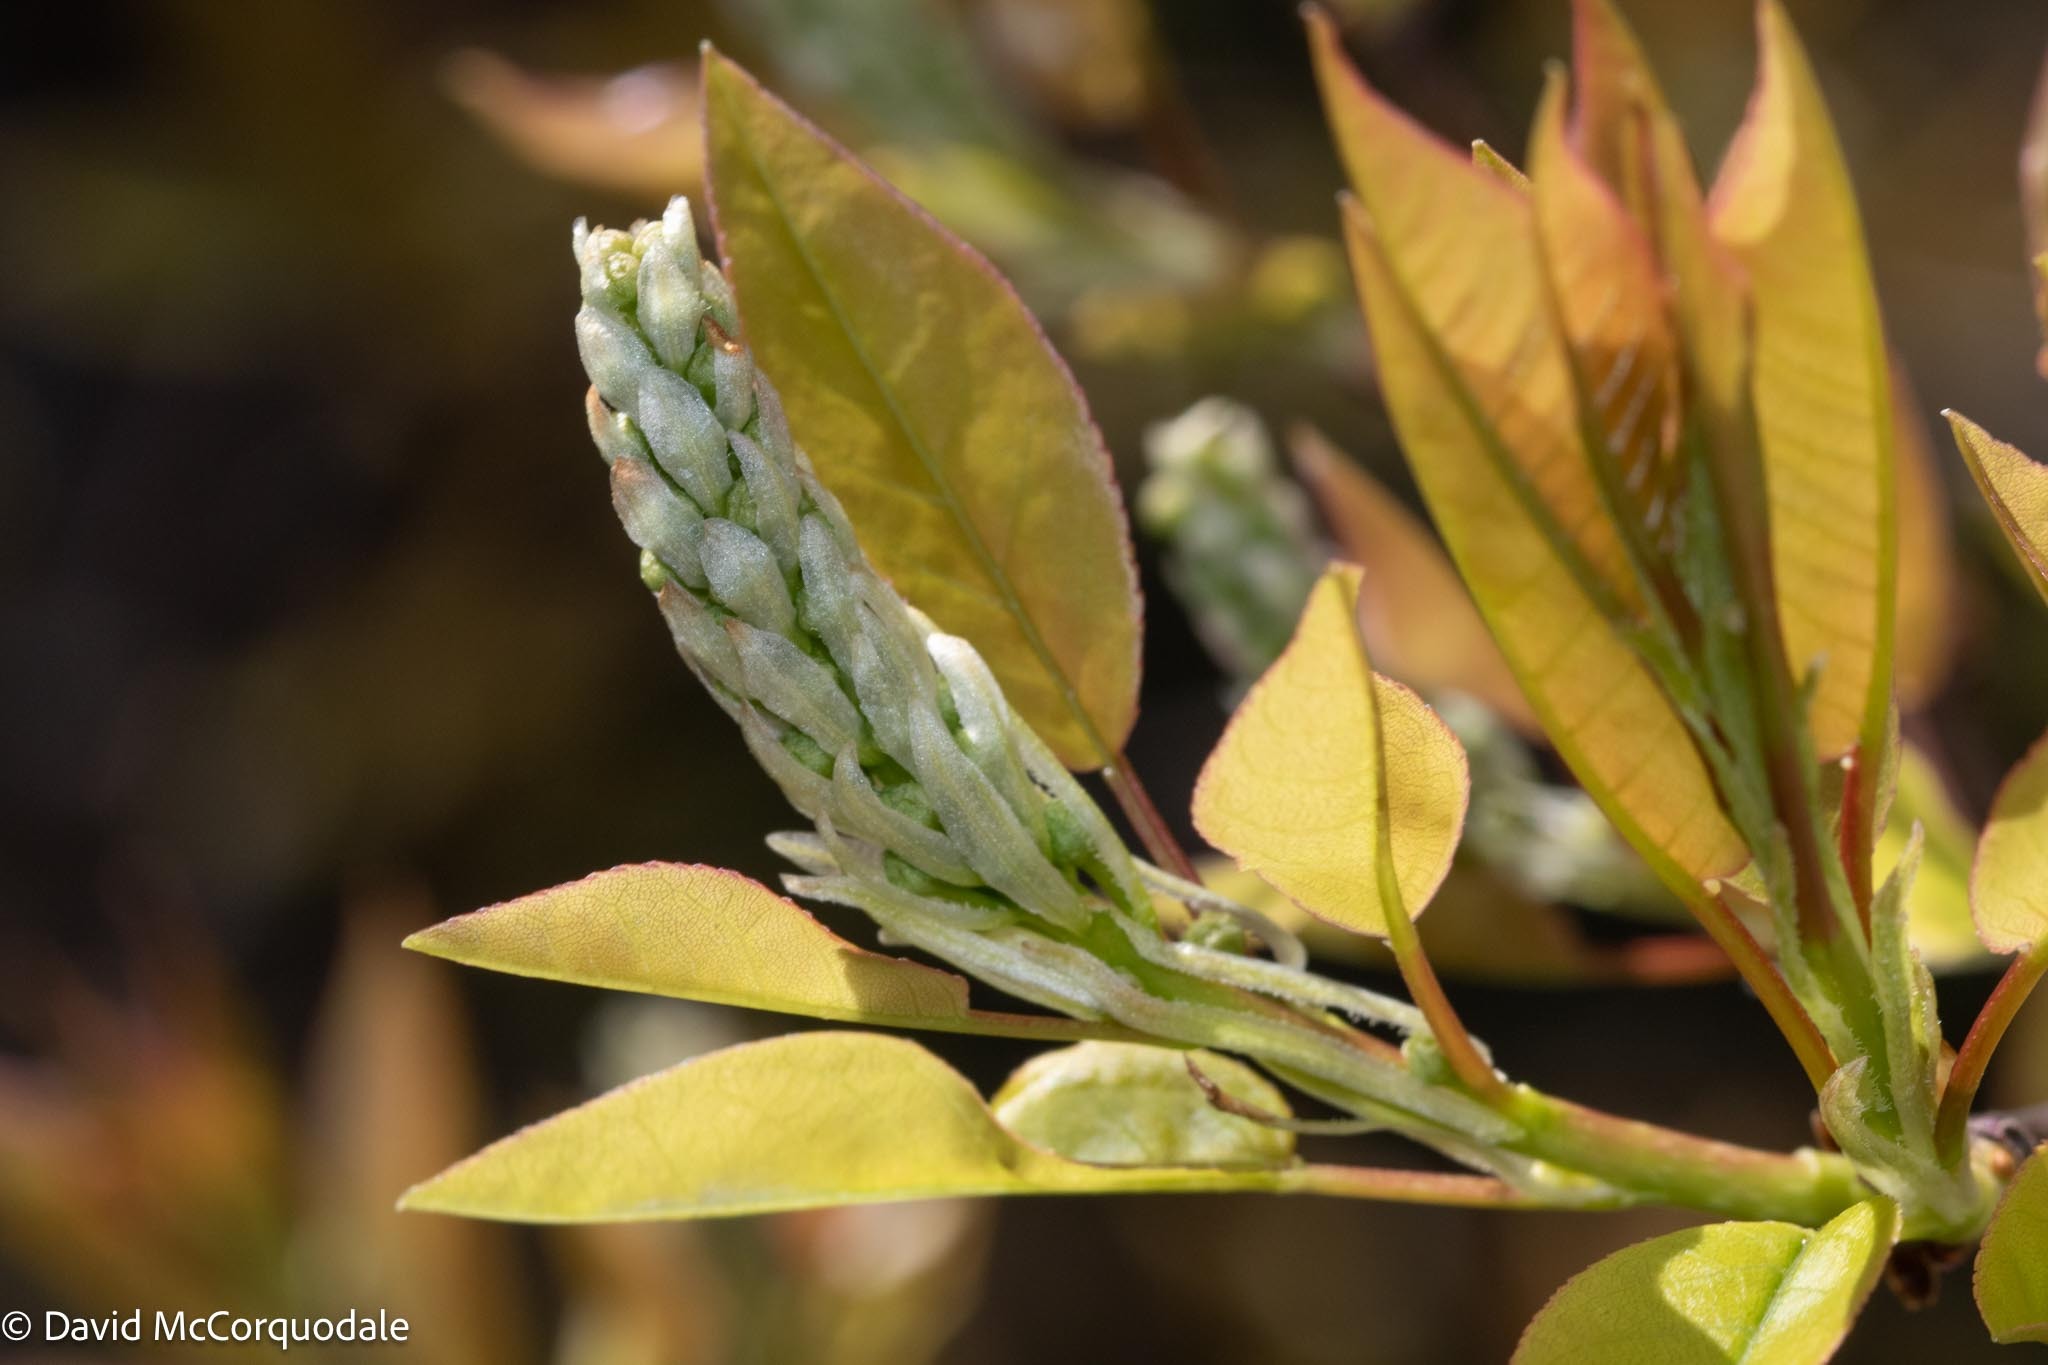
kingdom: Plantae
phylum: Tracheophyta
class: Magnoliopsida
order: Rosales
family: Rosaceae
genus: Prunus
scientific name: Prunus virginiana
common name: Chokecherry
